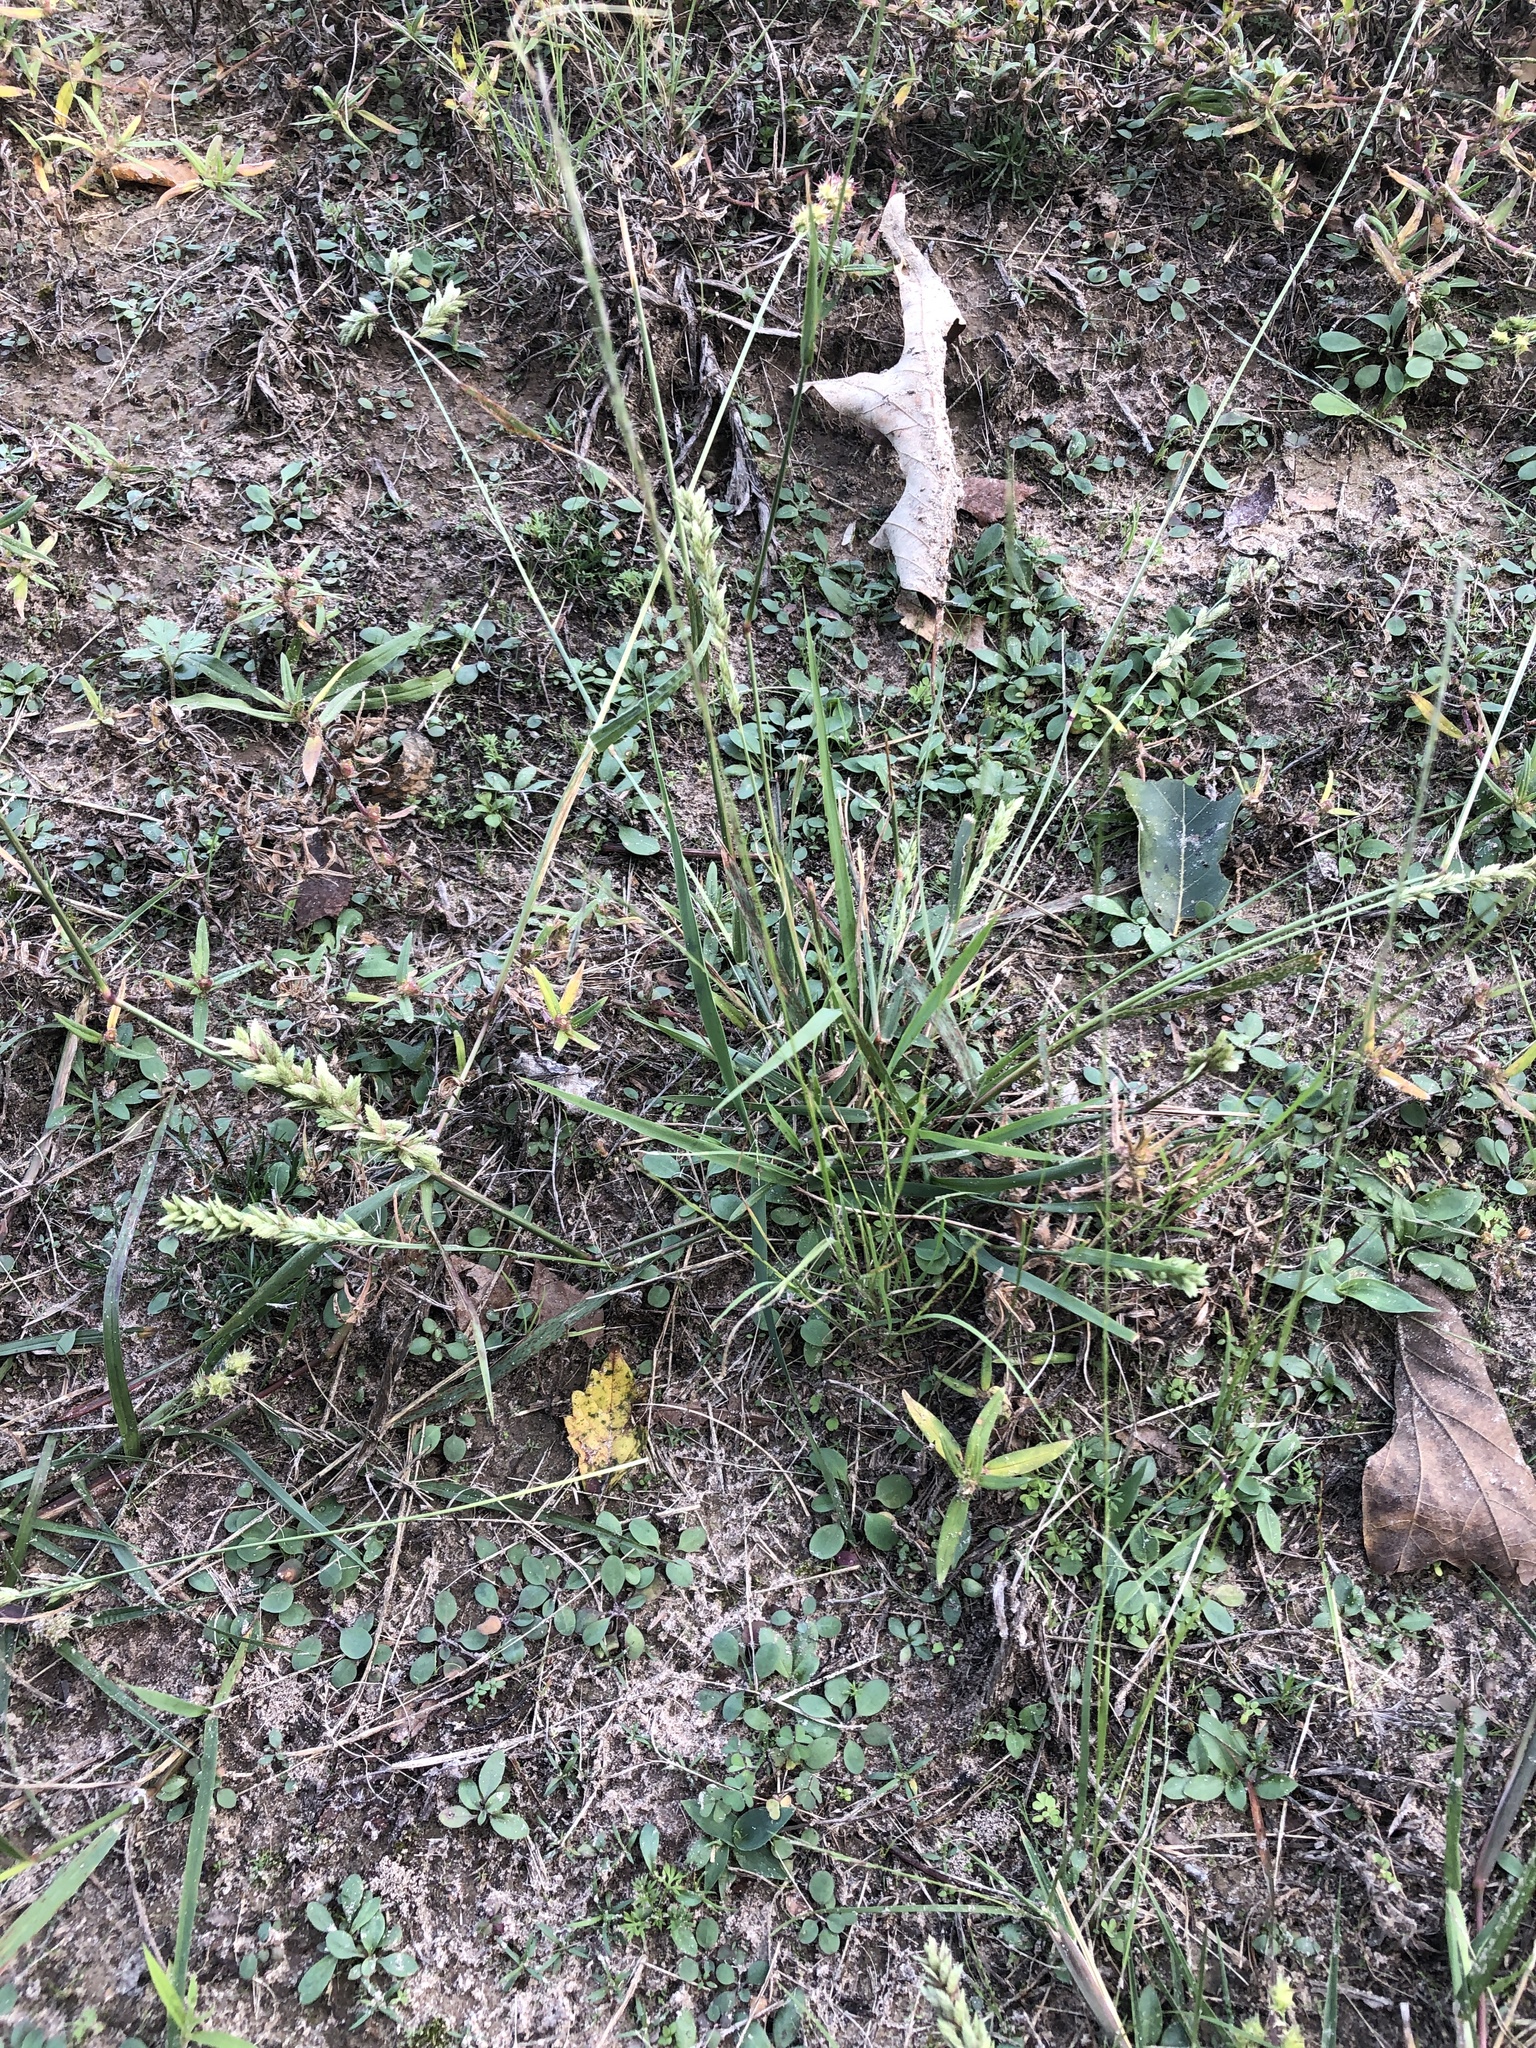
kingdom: Plantae
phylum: Tracheophyta
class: Liliopsida
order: Poales
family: Poaceae
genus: Eragrostis
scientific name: Eragrostis secundiflora
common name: Red love grass
